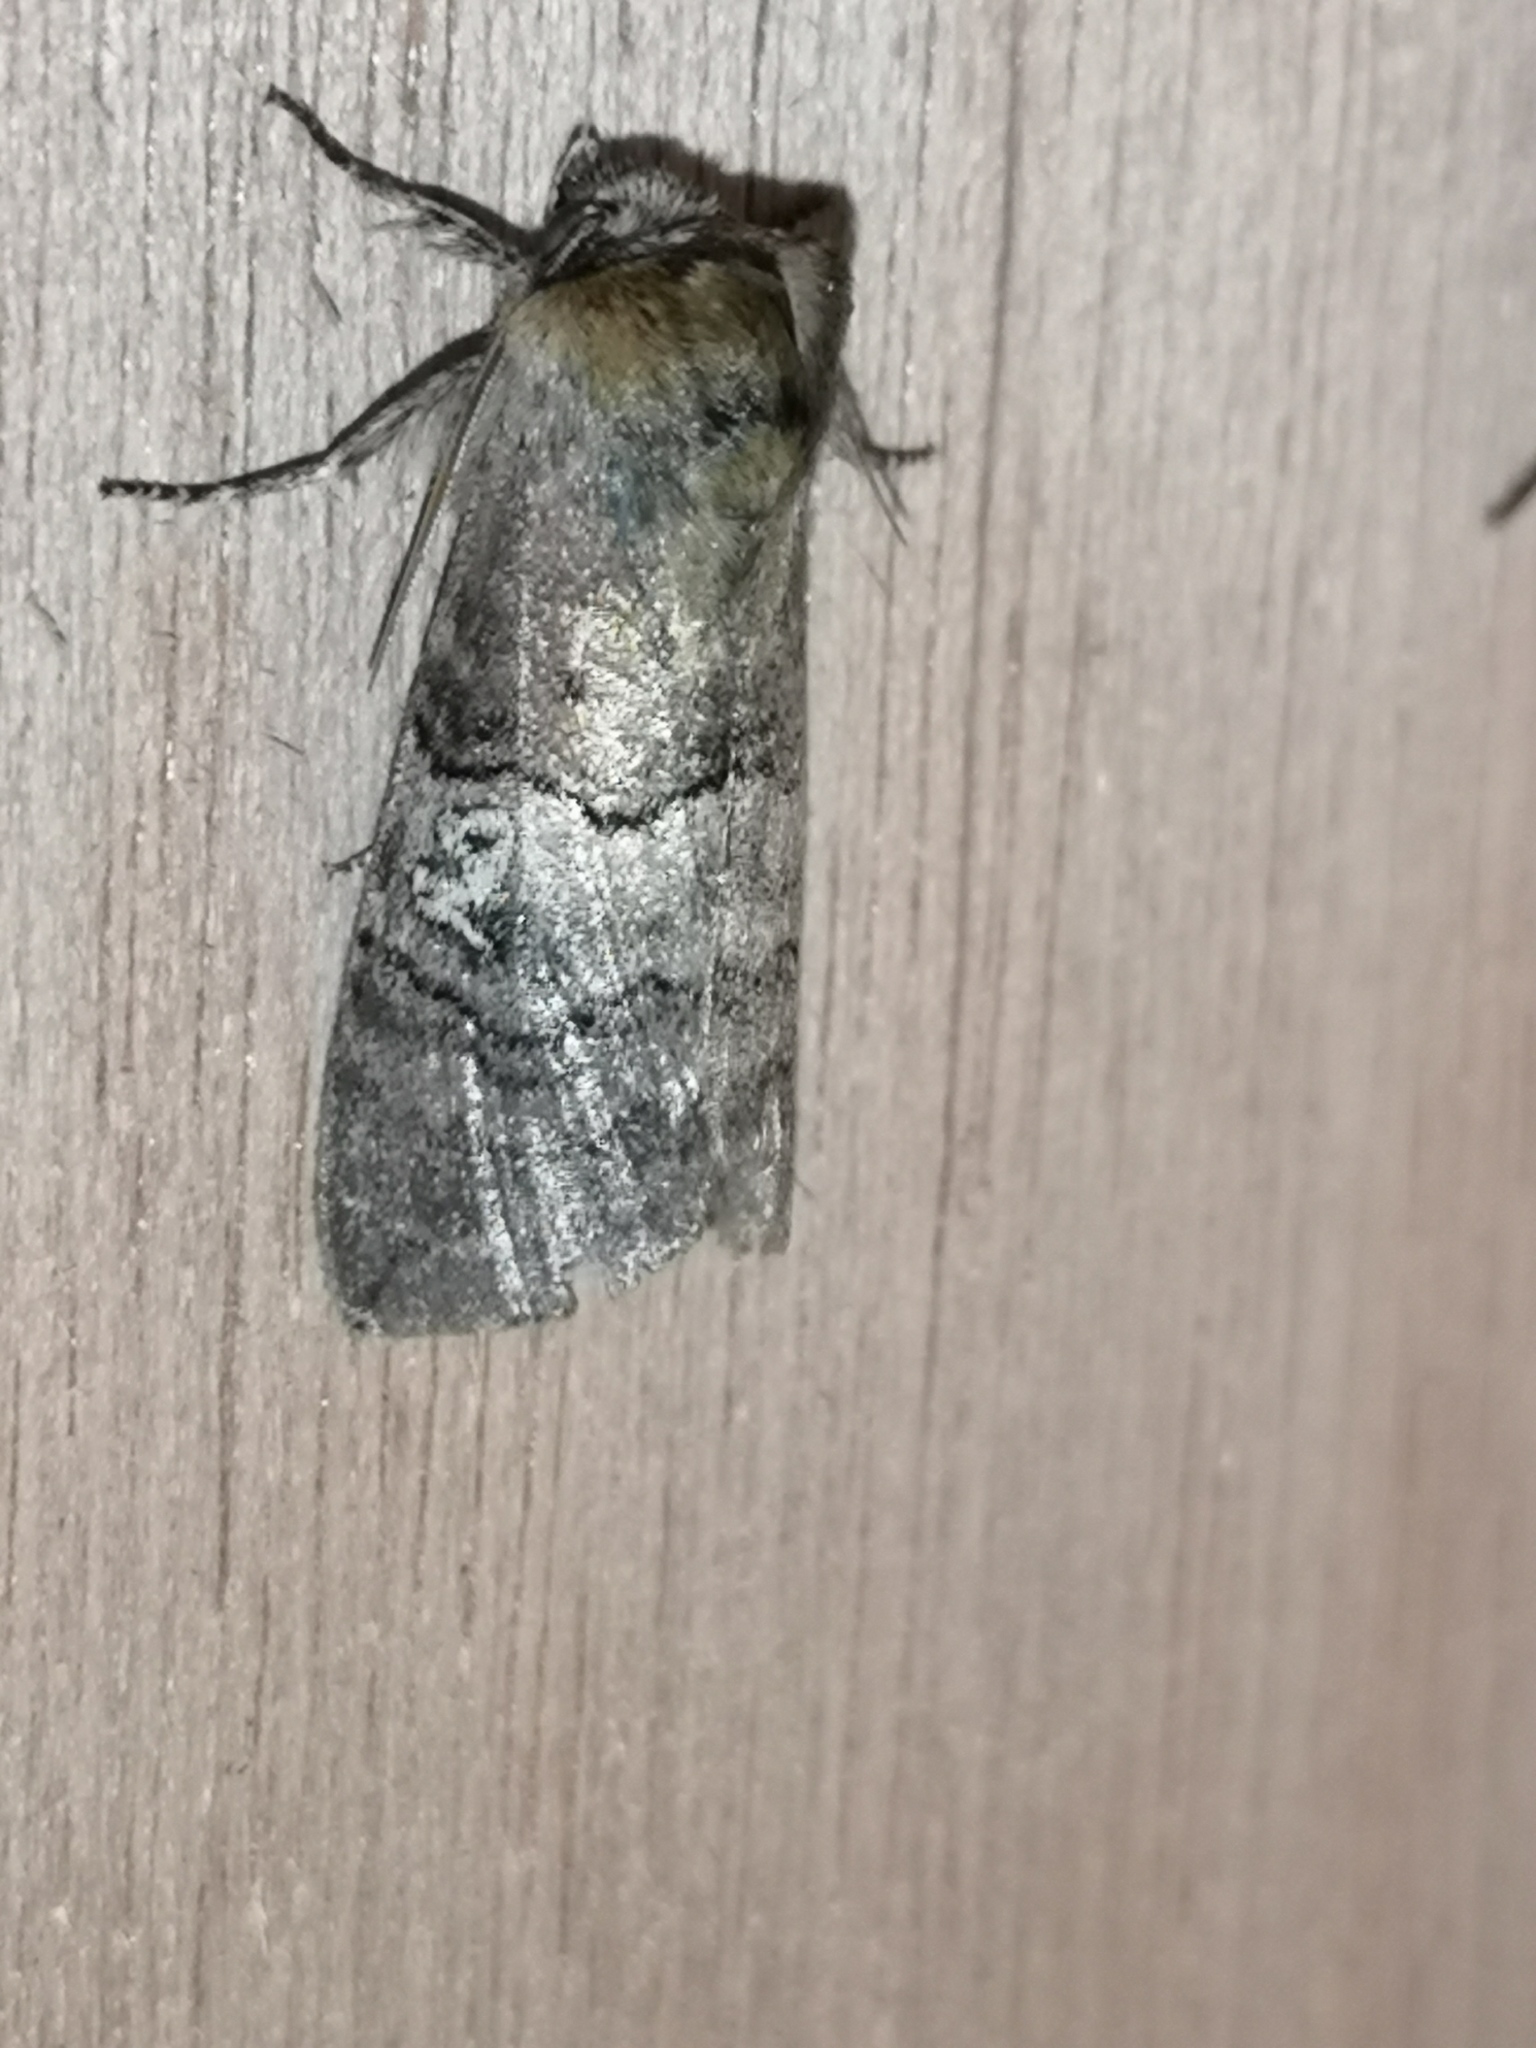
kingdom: Animalia
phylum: Arthropoda
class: Insecta
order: Lepidoptera
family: Drepanidae
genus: Tethea
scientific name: Tethea ocularis
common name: Figure of eighty
